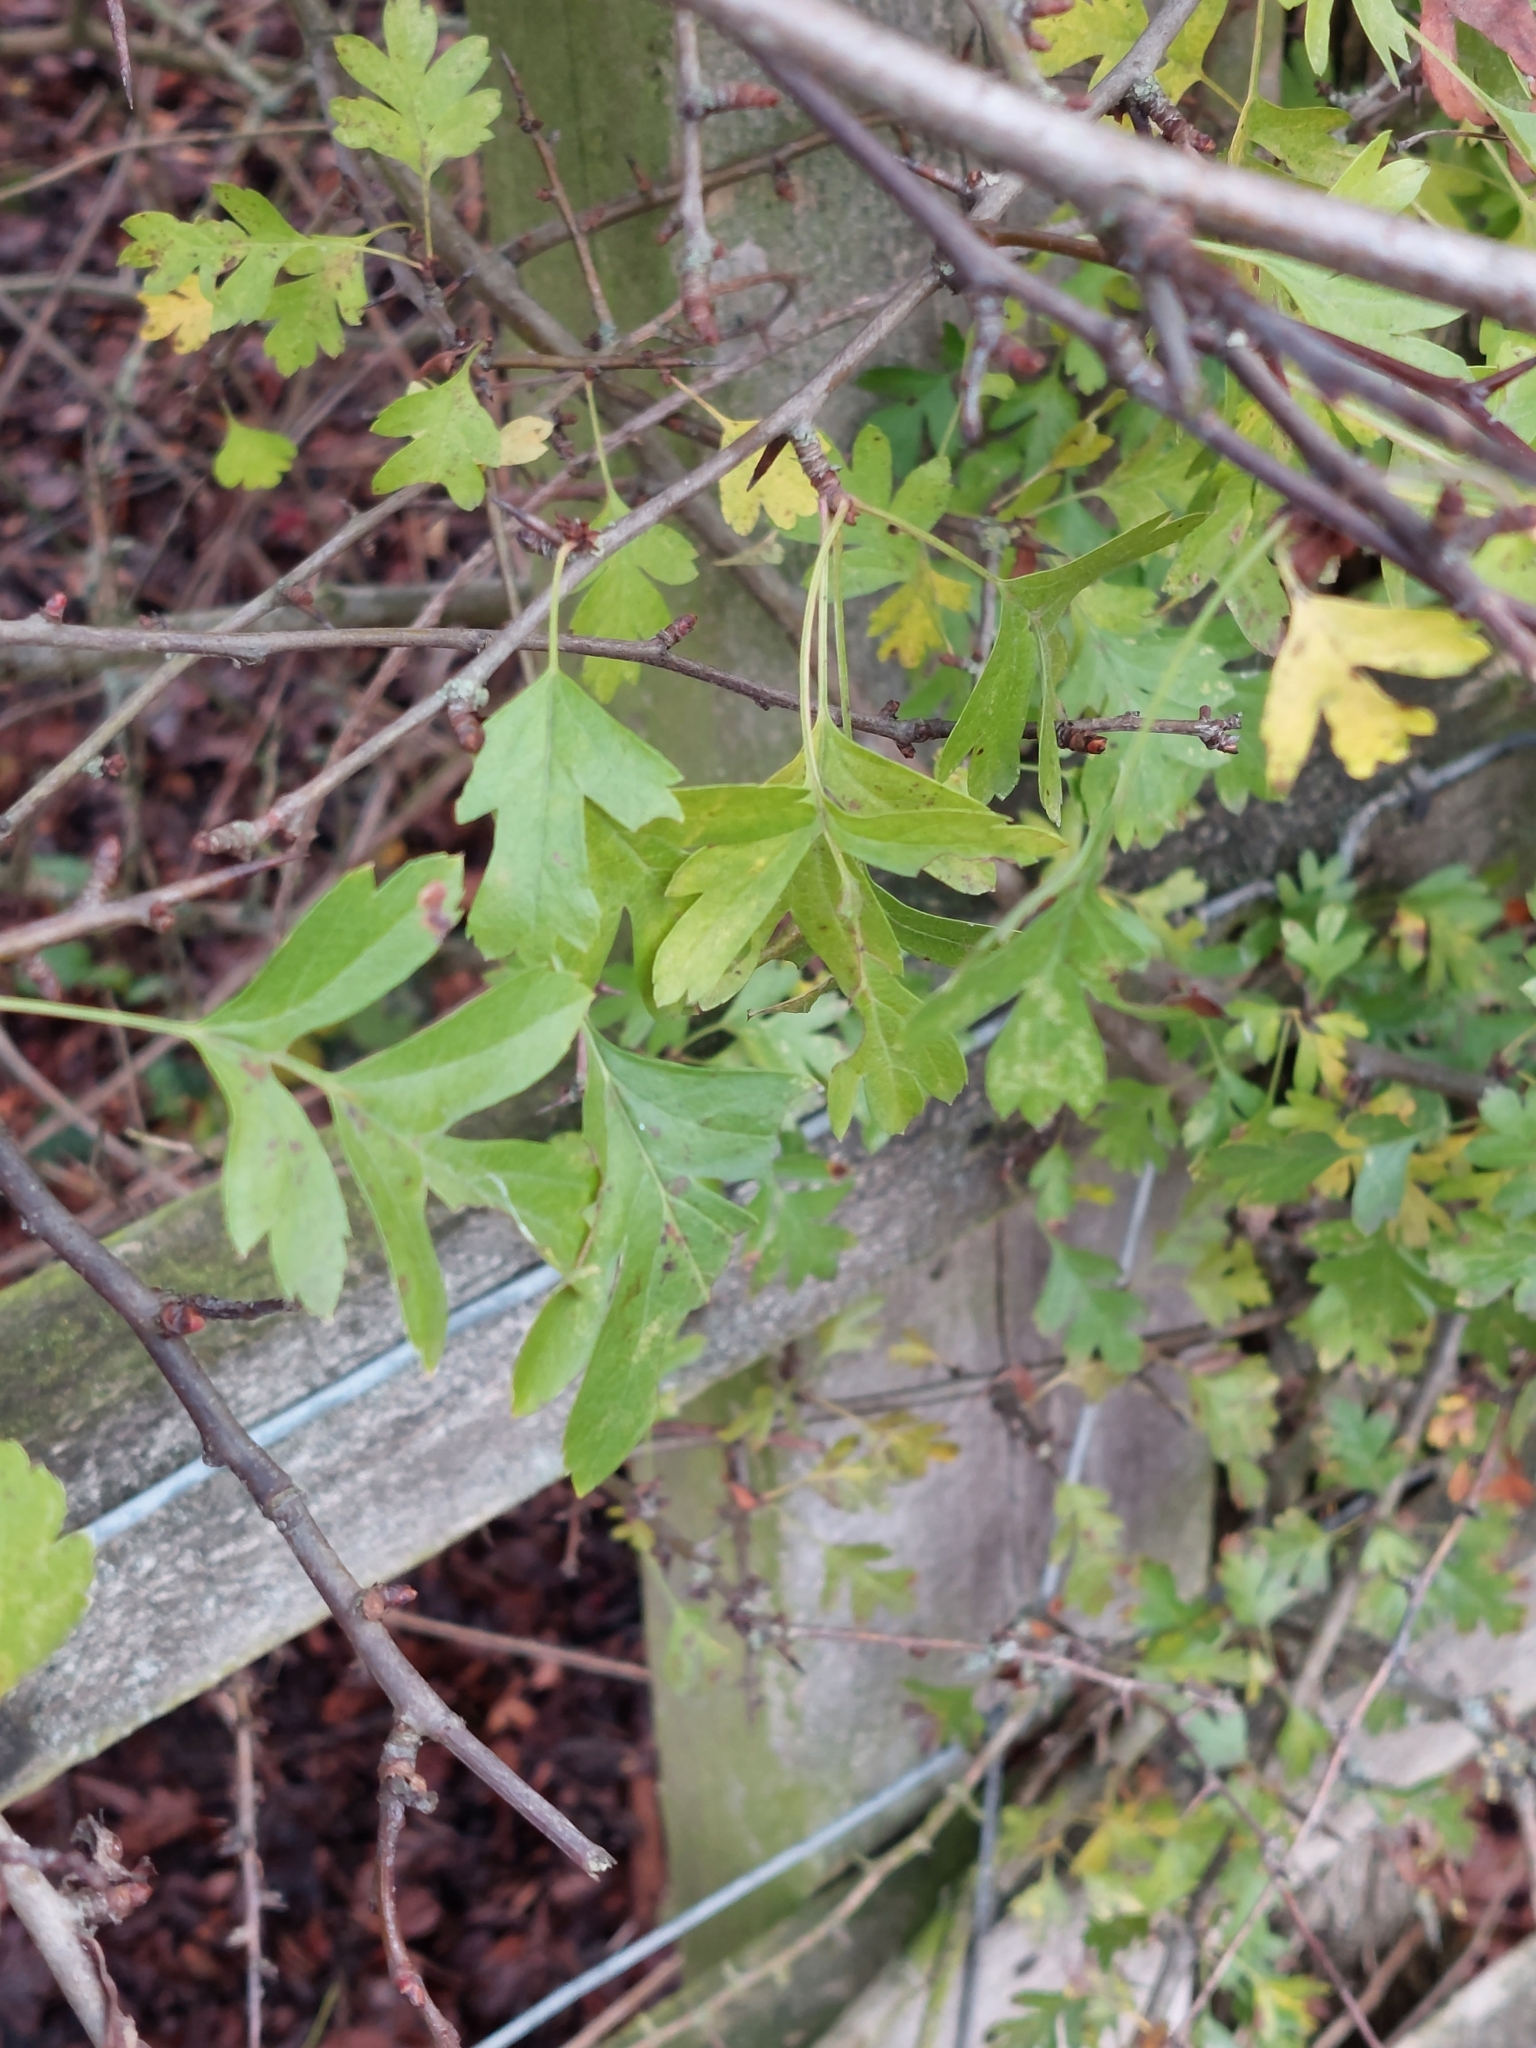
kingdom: Plantae
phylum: Tracheophyta
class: Magnoliopsida
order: Rosales
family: Rosaceae
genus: Crataegus
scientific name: Crataegus monogyna
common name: Hawthorn
